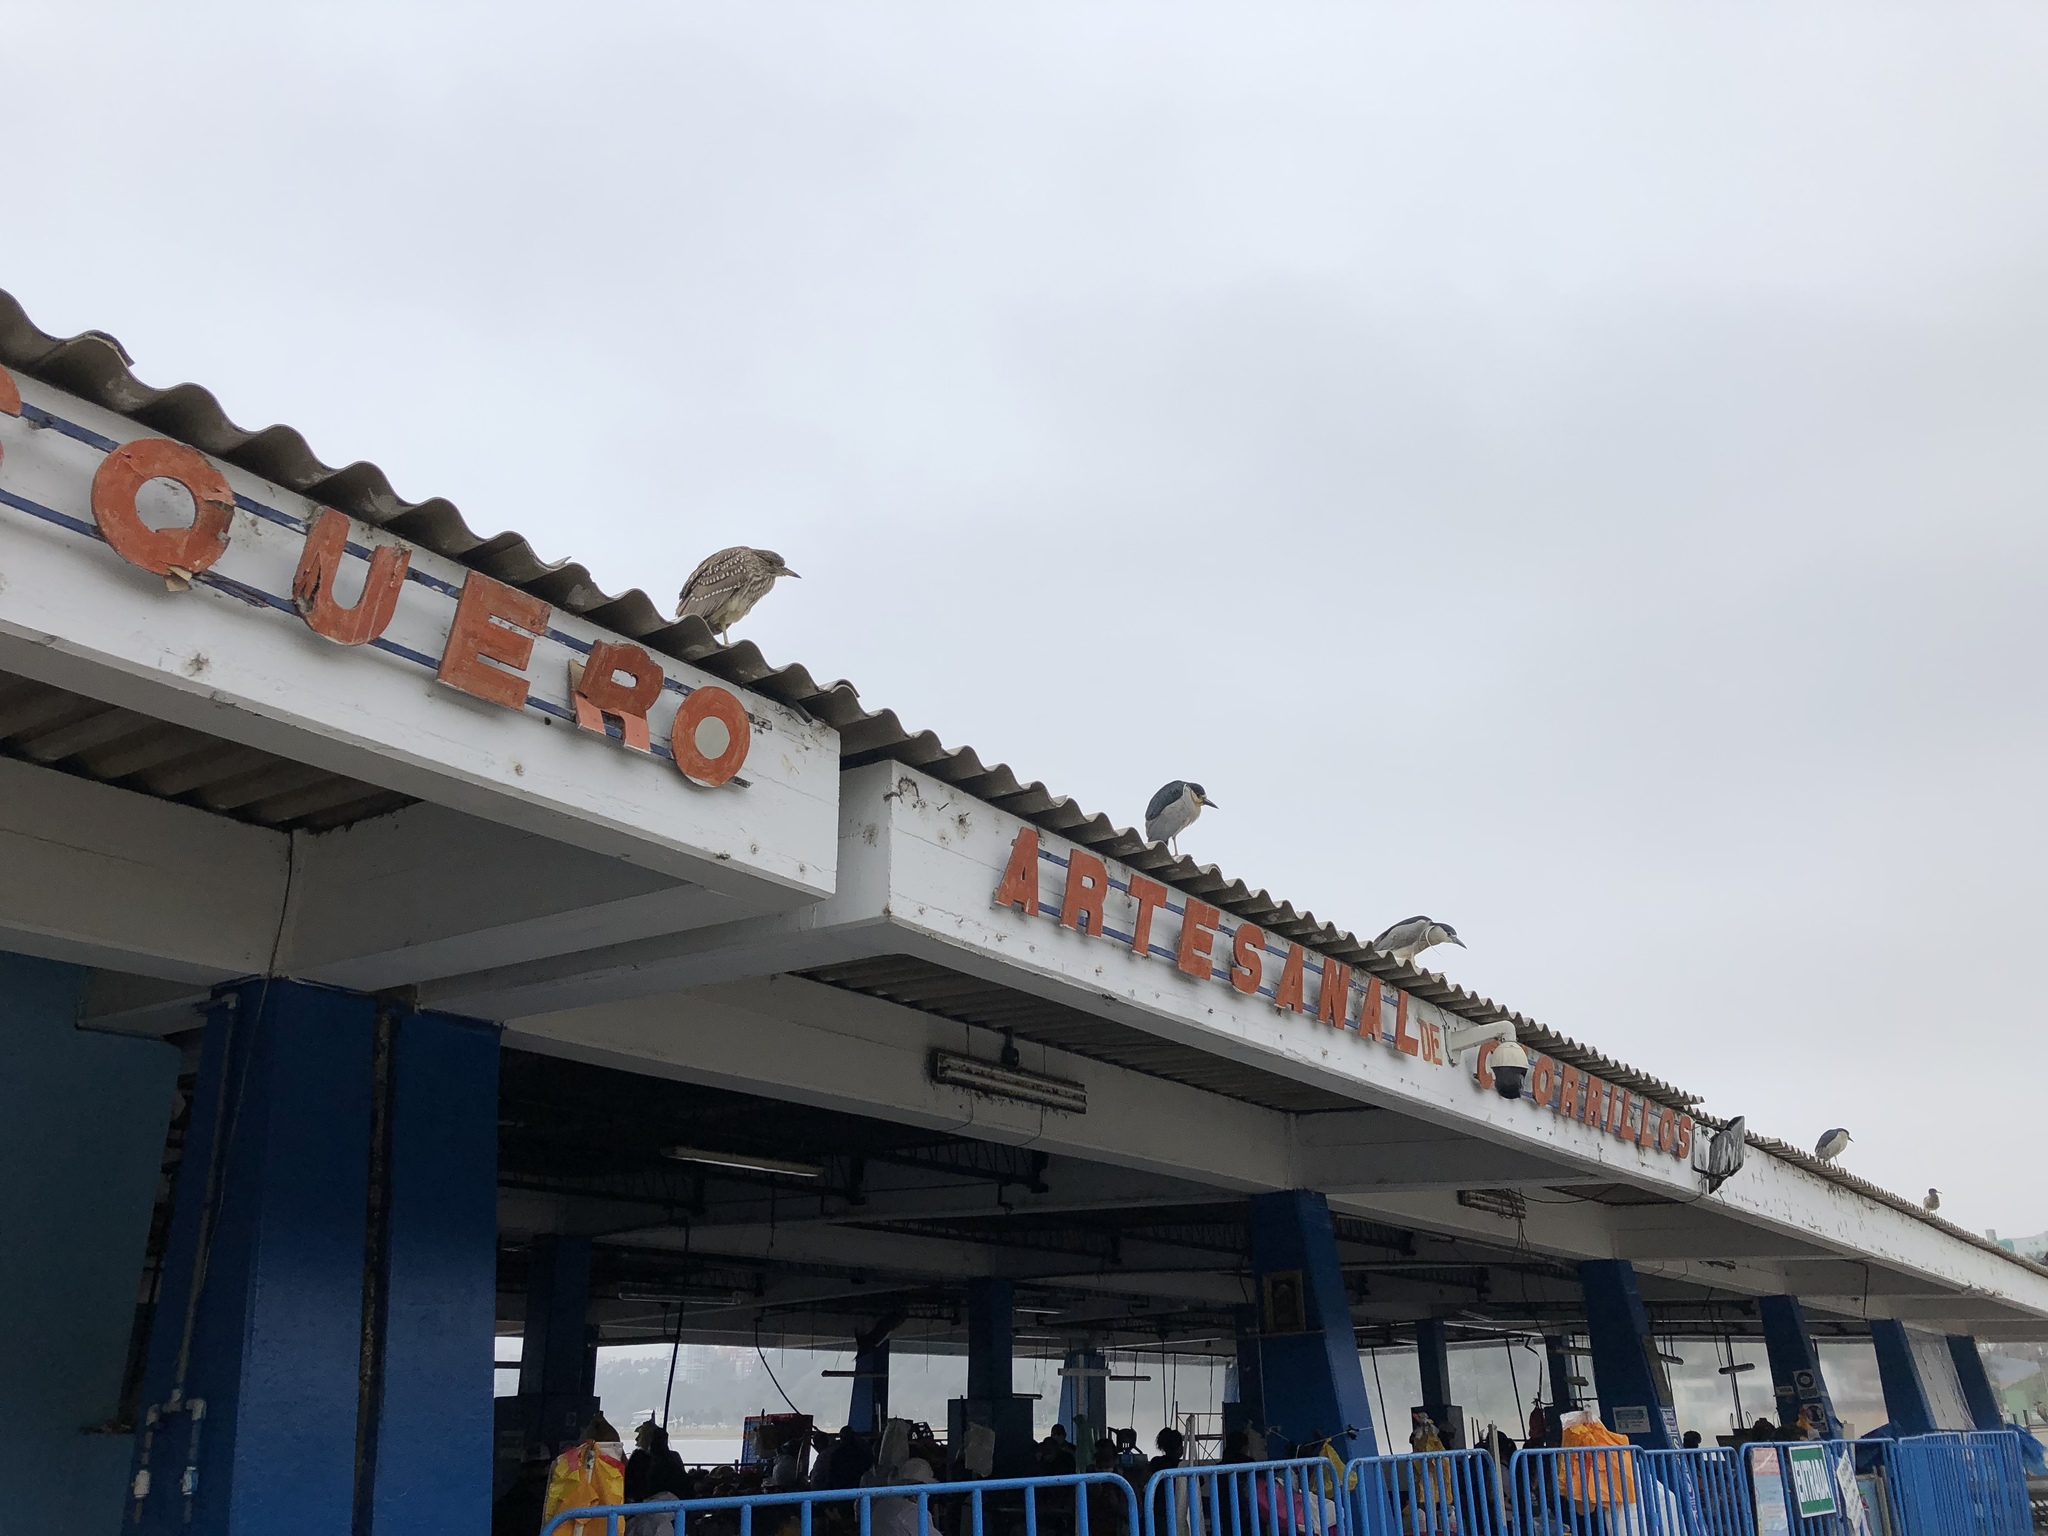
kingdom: Animalia
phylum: Chordata
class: Aves
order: Pelecaniformes
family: Ardeidae
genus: Nycticorax
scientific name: Nycticorax nycticorax
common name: Black-crowned night heron
